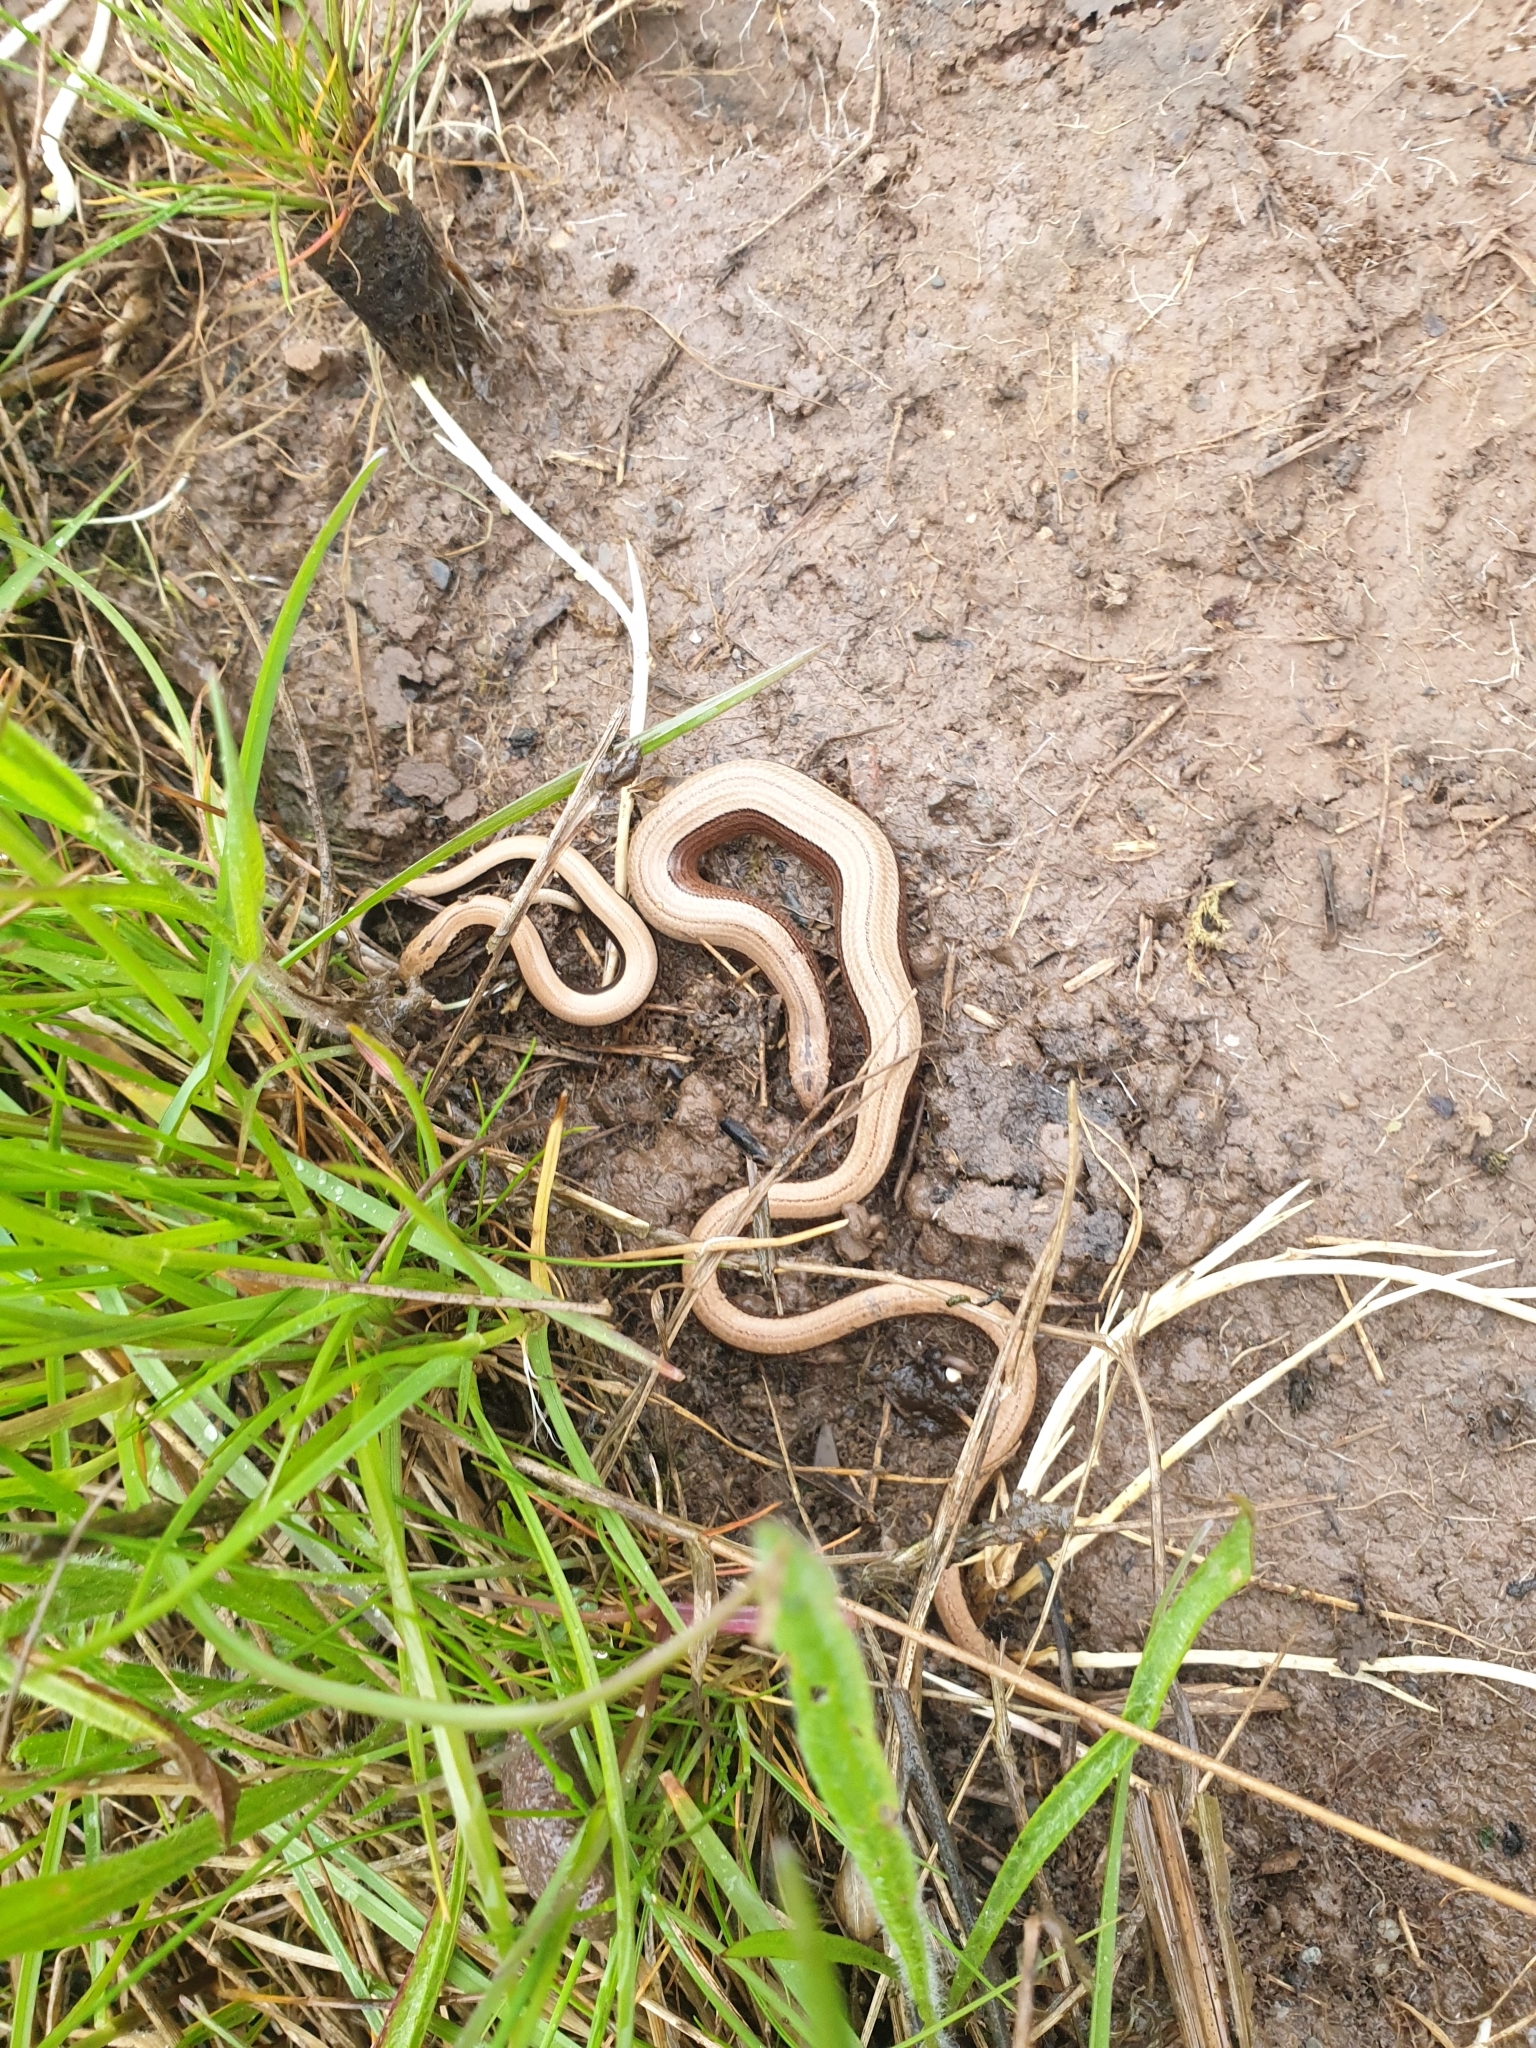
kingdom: Animalia
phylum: Chordata
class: Squamata
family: Anguidae
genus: Anguis
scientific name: Anguis fragilis
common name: Slow worm
